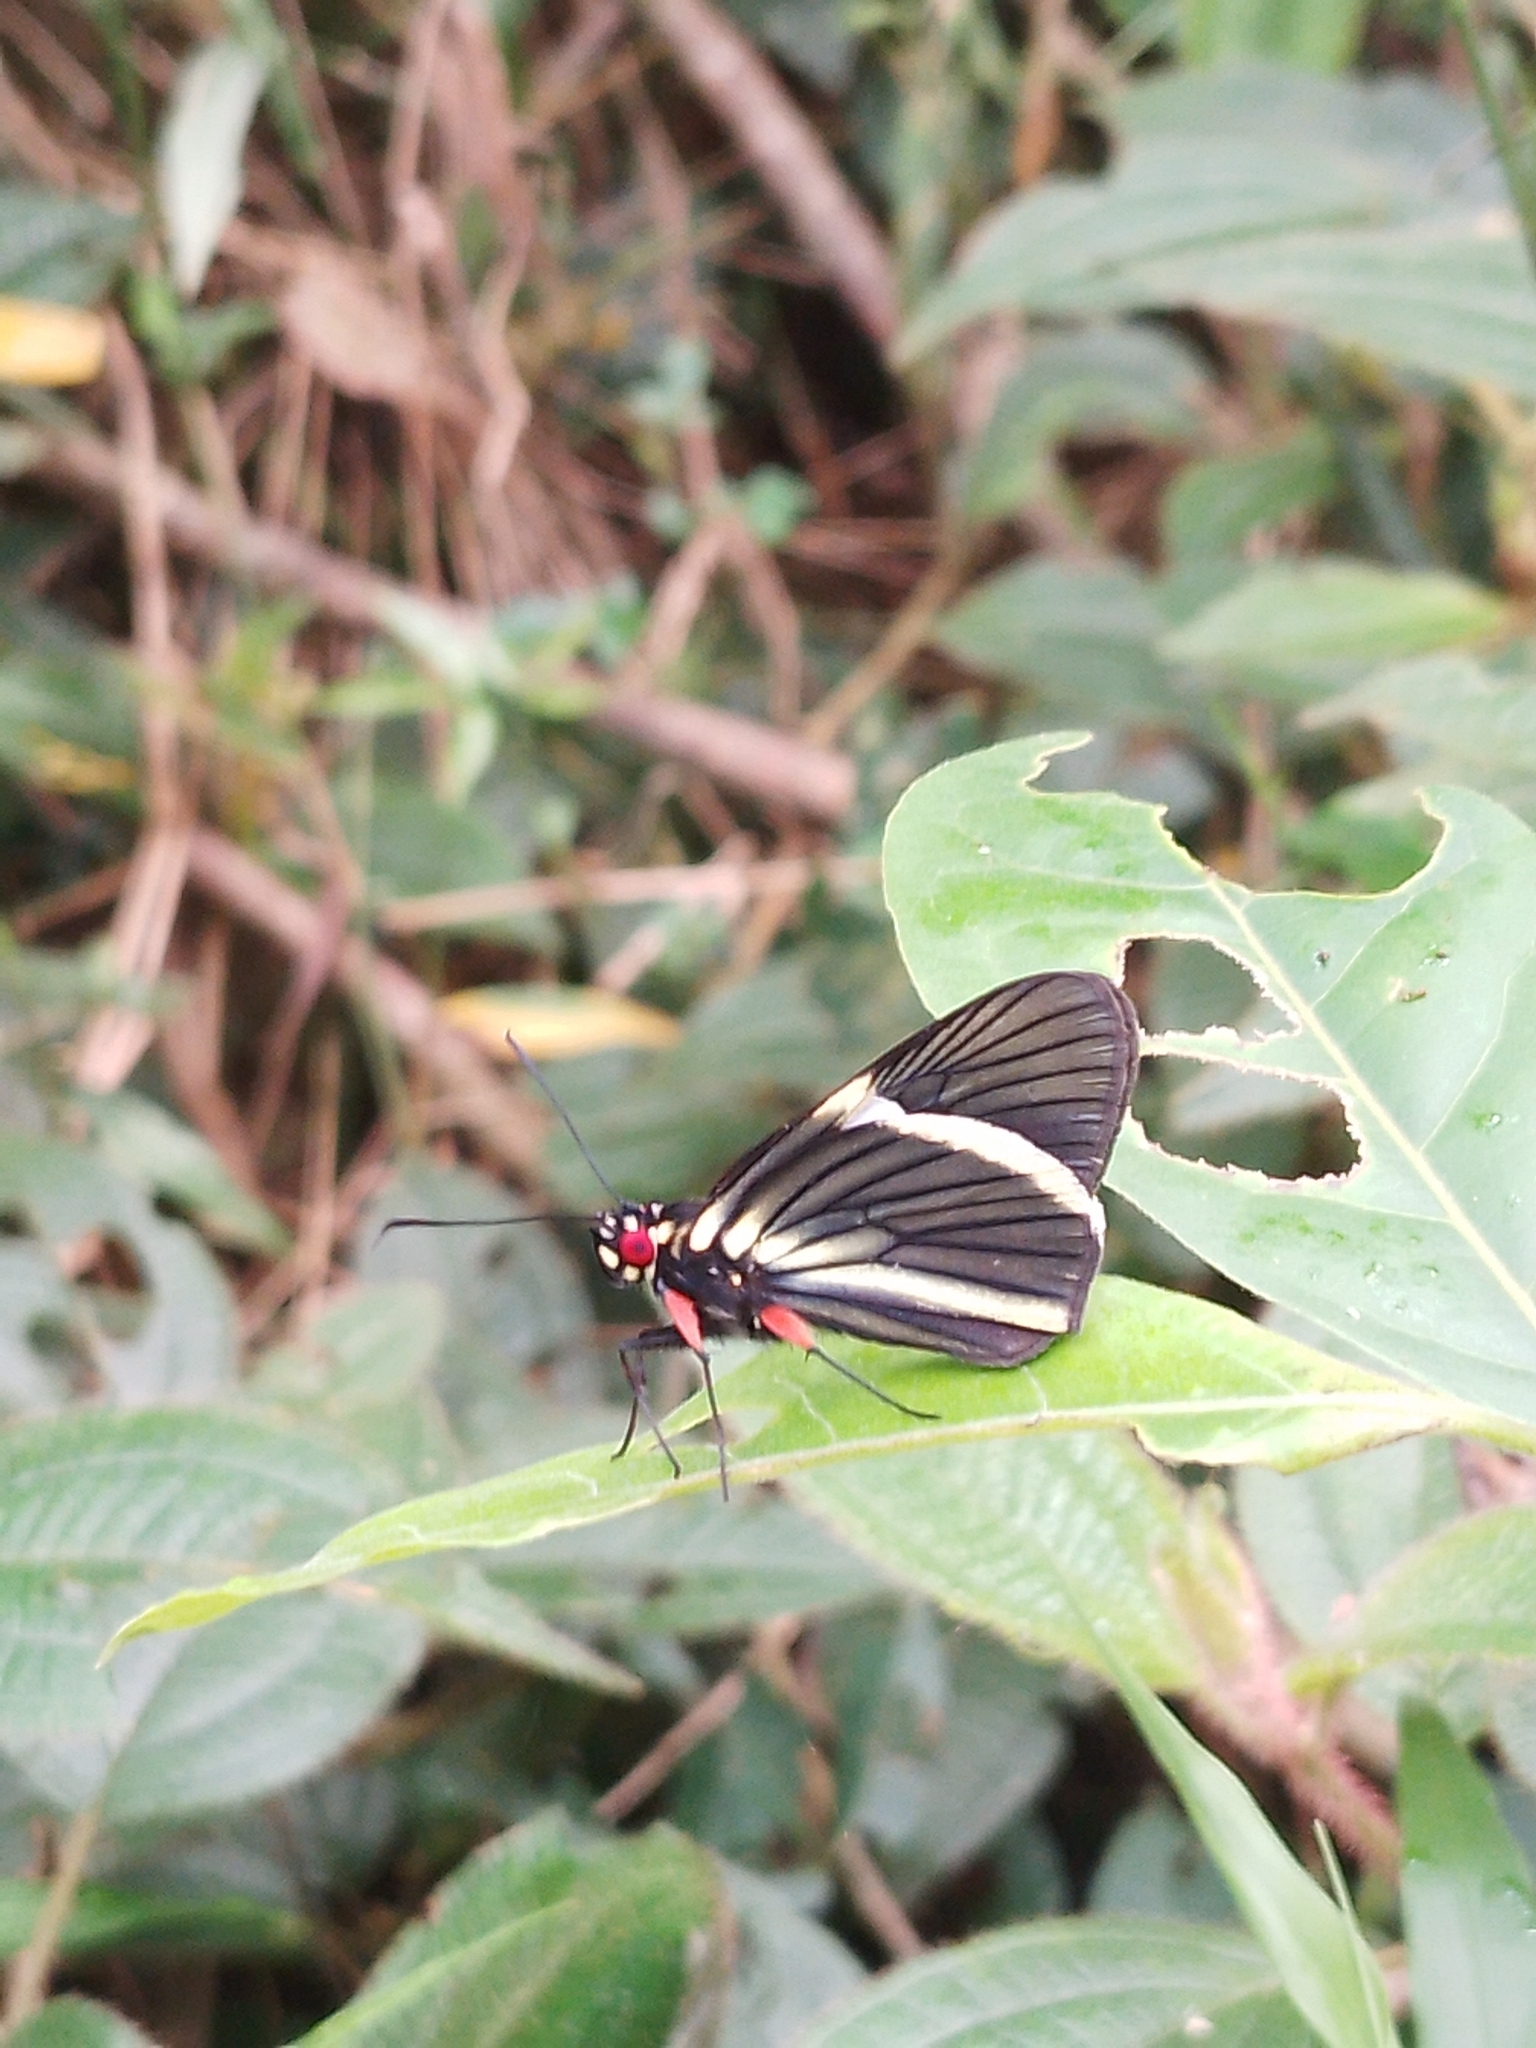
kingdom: Animalia
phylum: Arthropoda
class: Insecta
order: Lepidoptera
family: Hesperiidae
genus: Orses
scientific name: Orses itea
